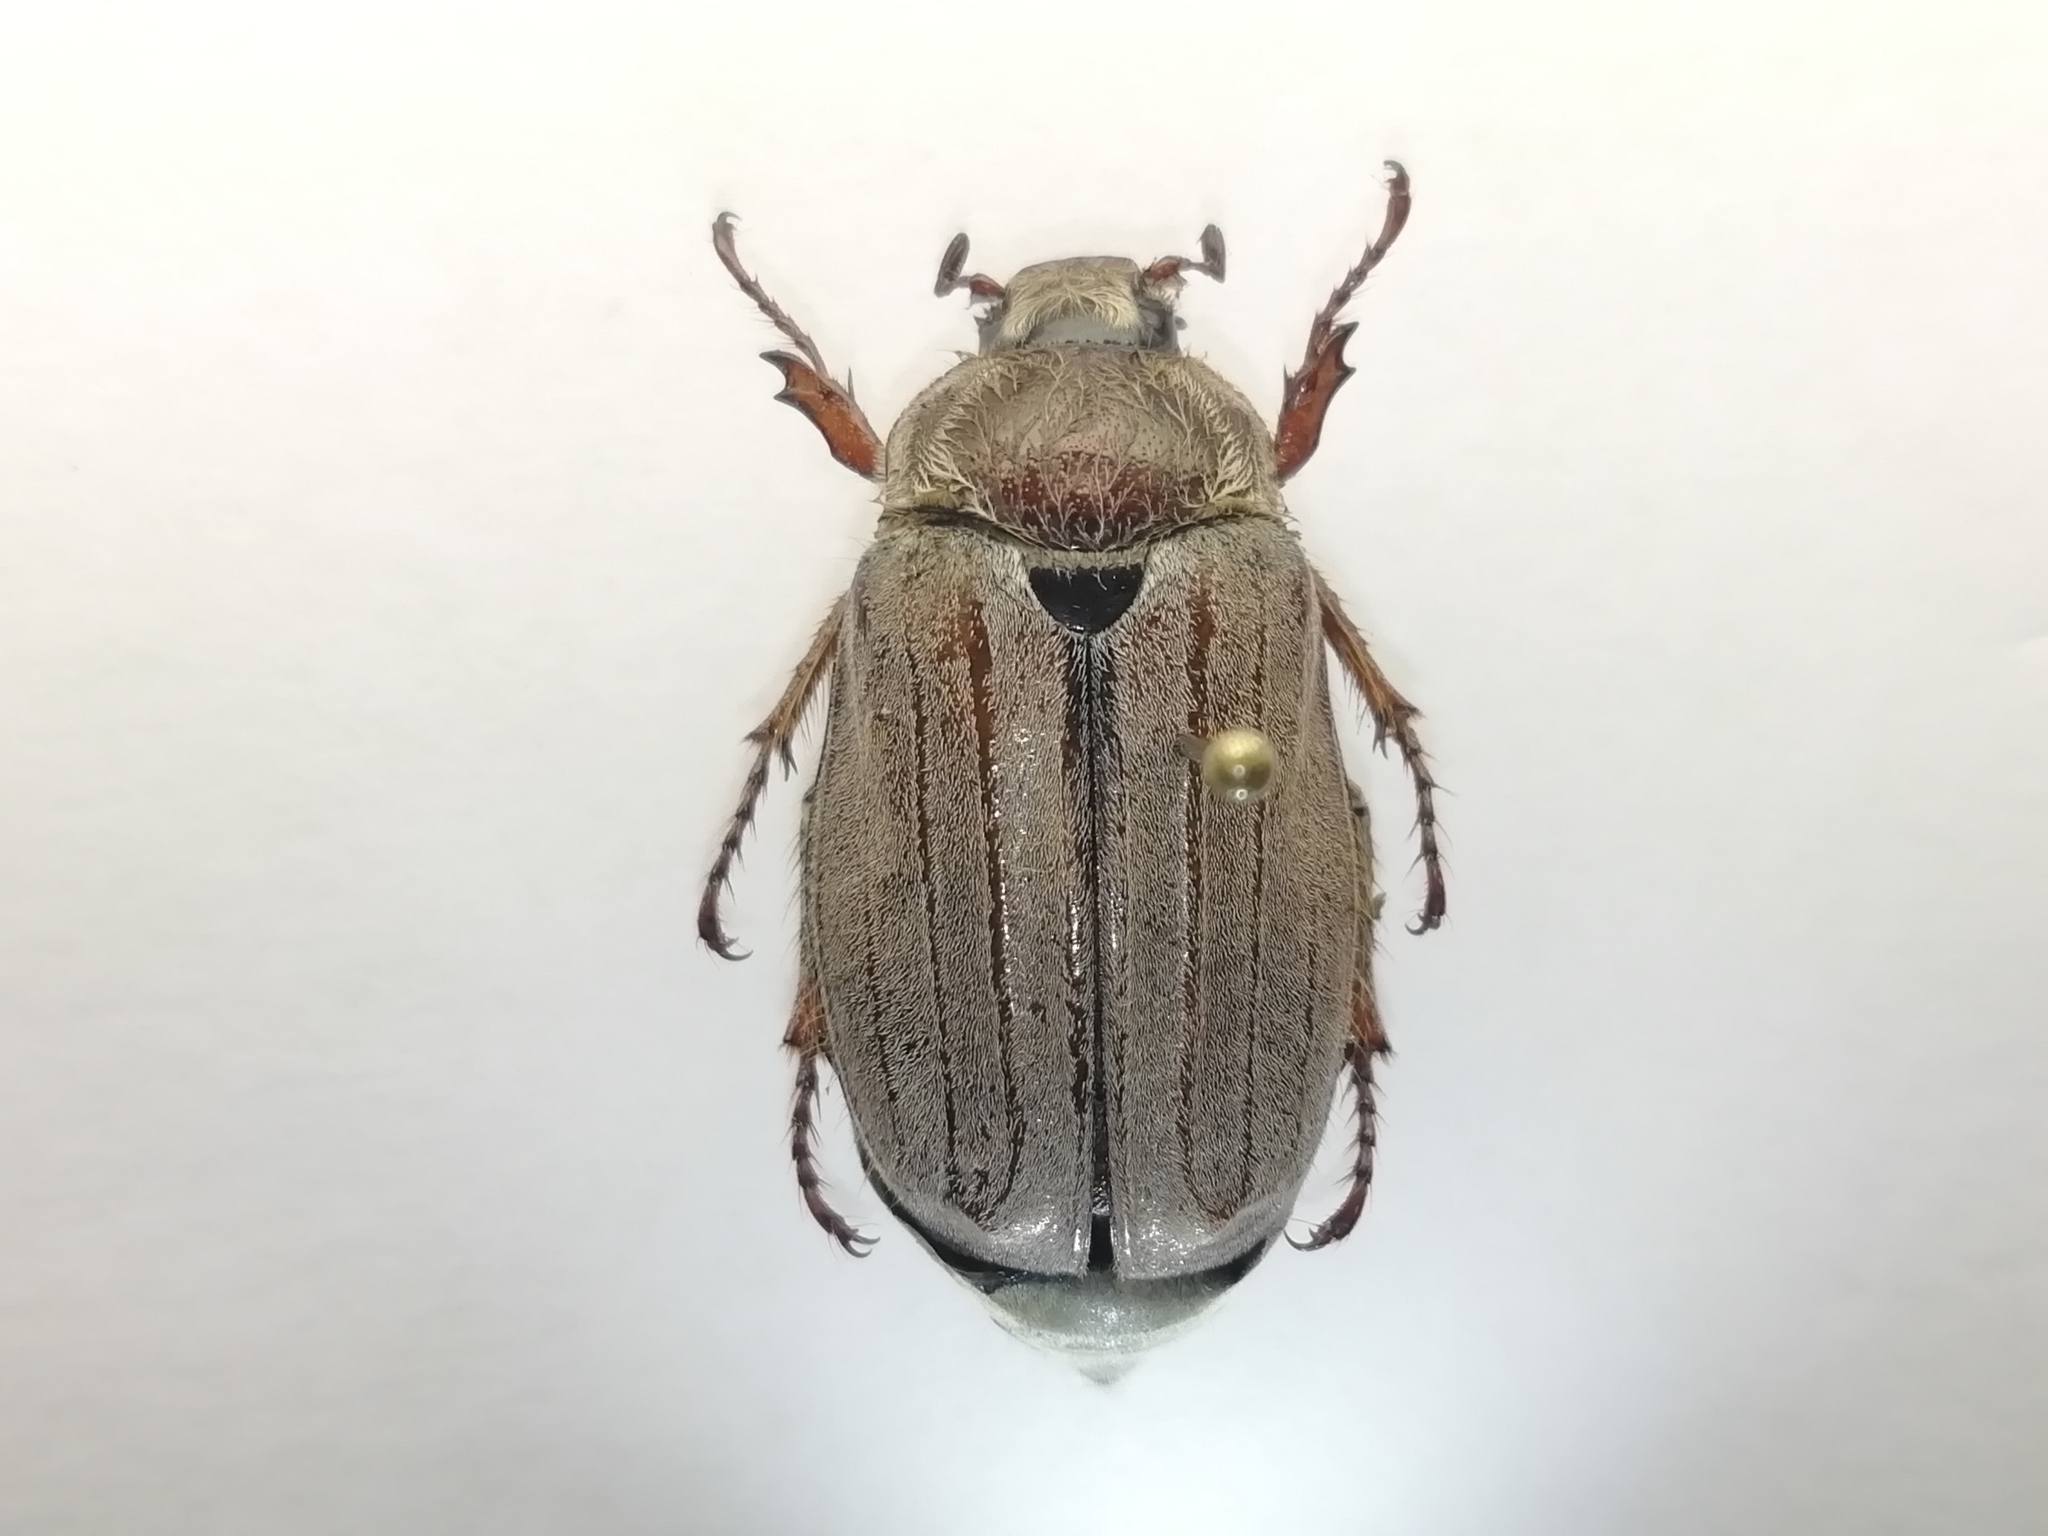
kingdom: Animalia
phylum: Arthropoda
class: Insecta
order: Coleoptera
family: Scarabaeidae
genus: Melolontha
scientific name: Melolontha hippocastani
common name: Chestnut cockchafer
